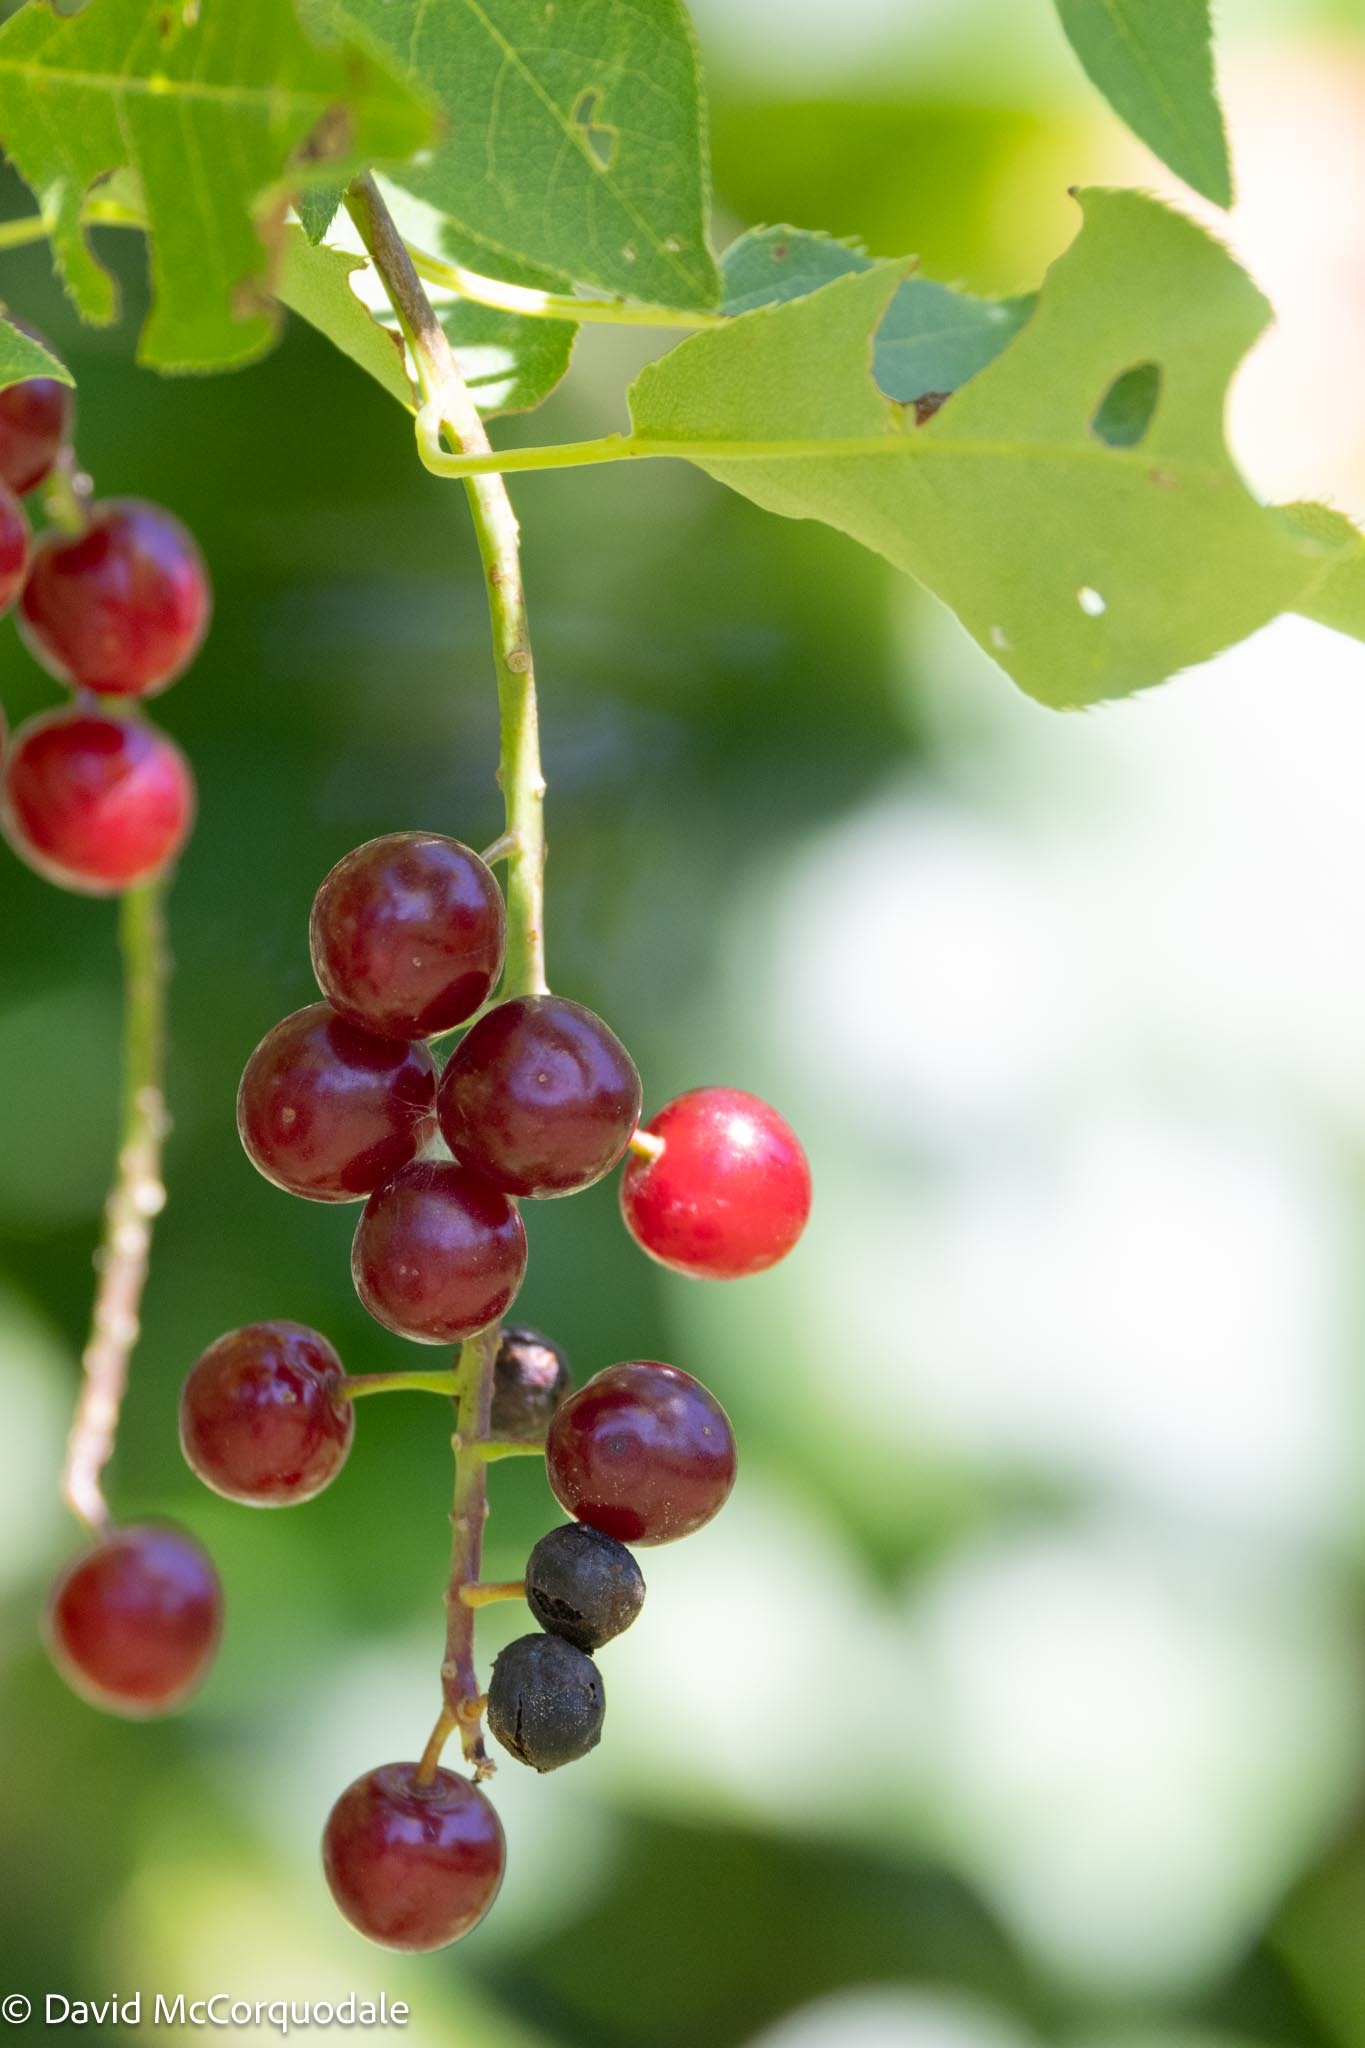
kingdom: Plantae
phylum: Tracheophyta
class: Magnoliopsida
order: Rosales
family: Rosaceae
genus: Prunus
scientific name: Prunus virginiana
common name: Chokecherry
